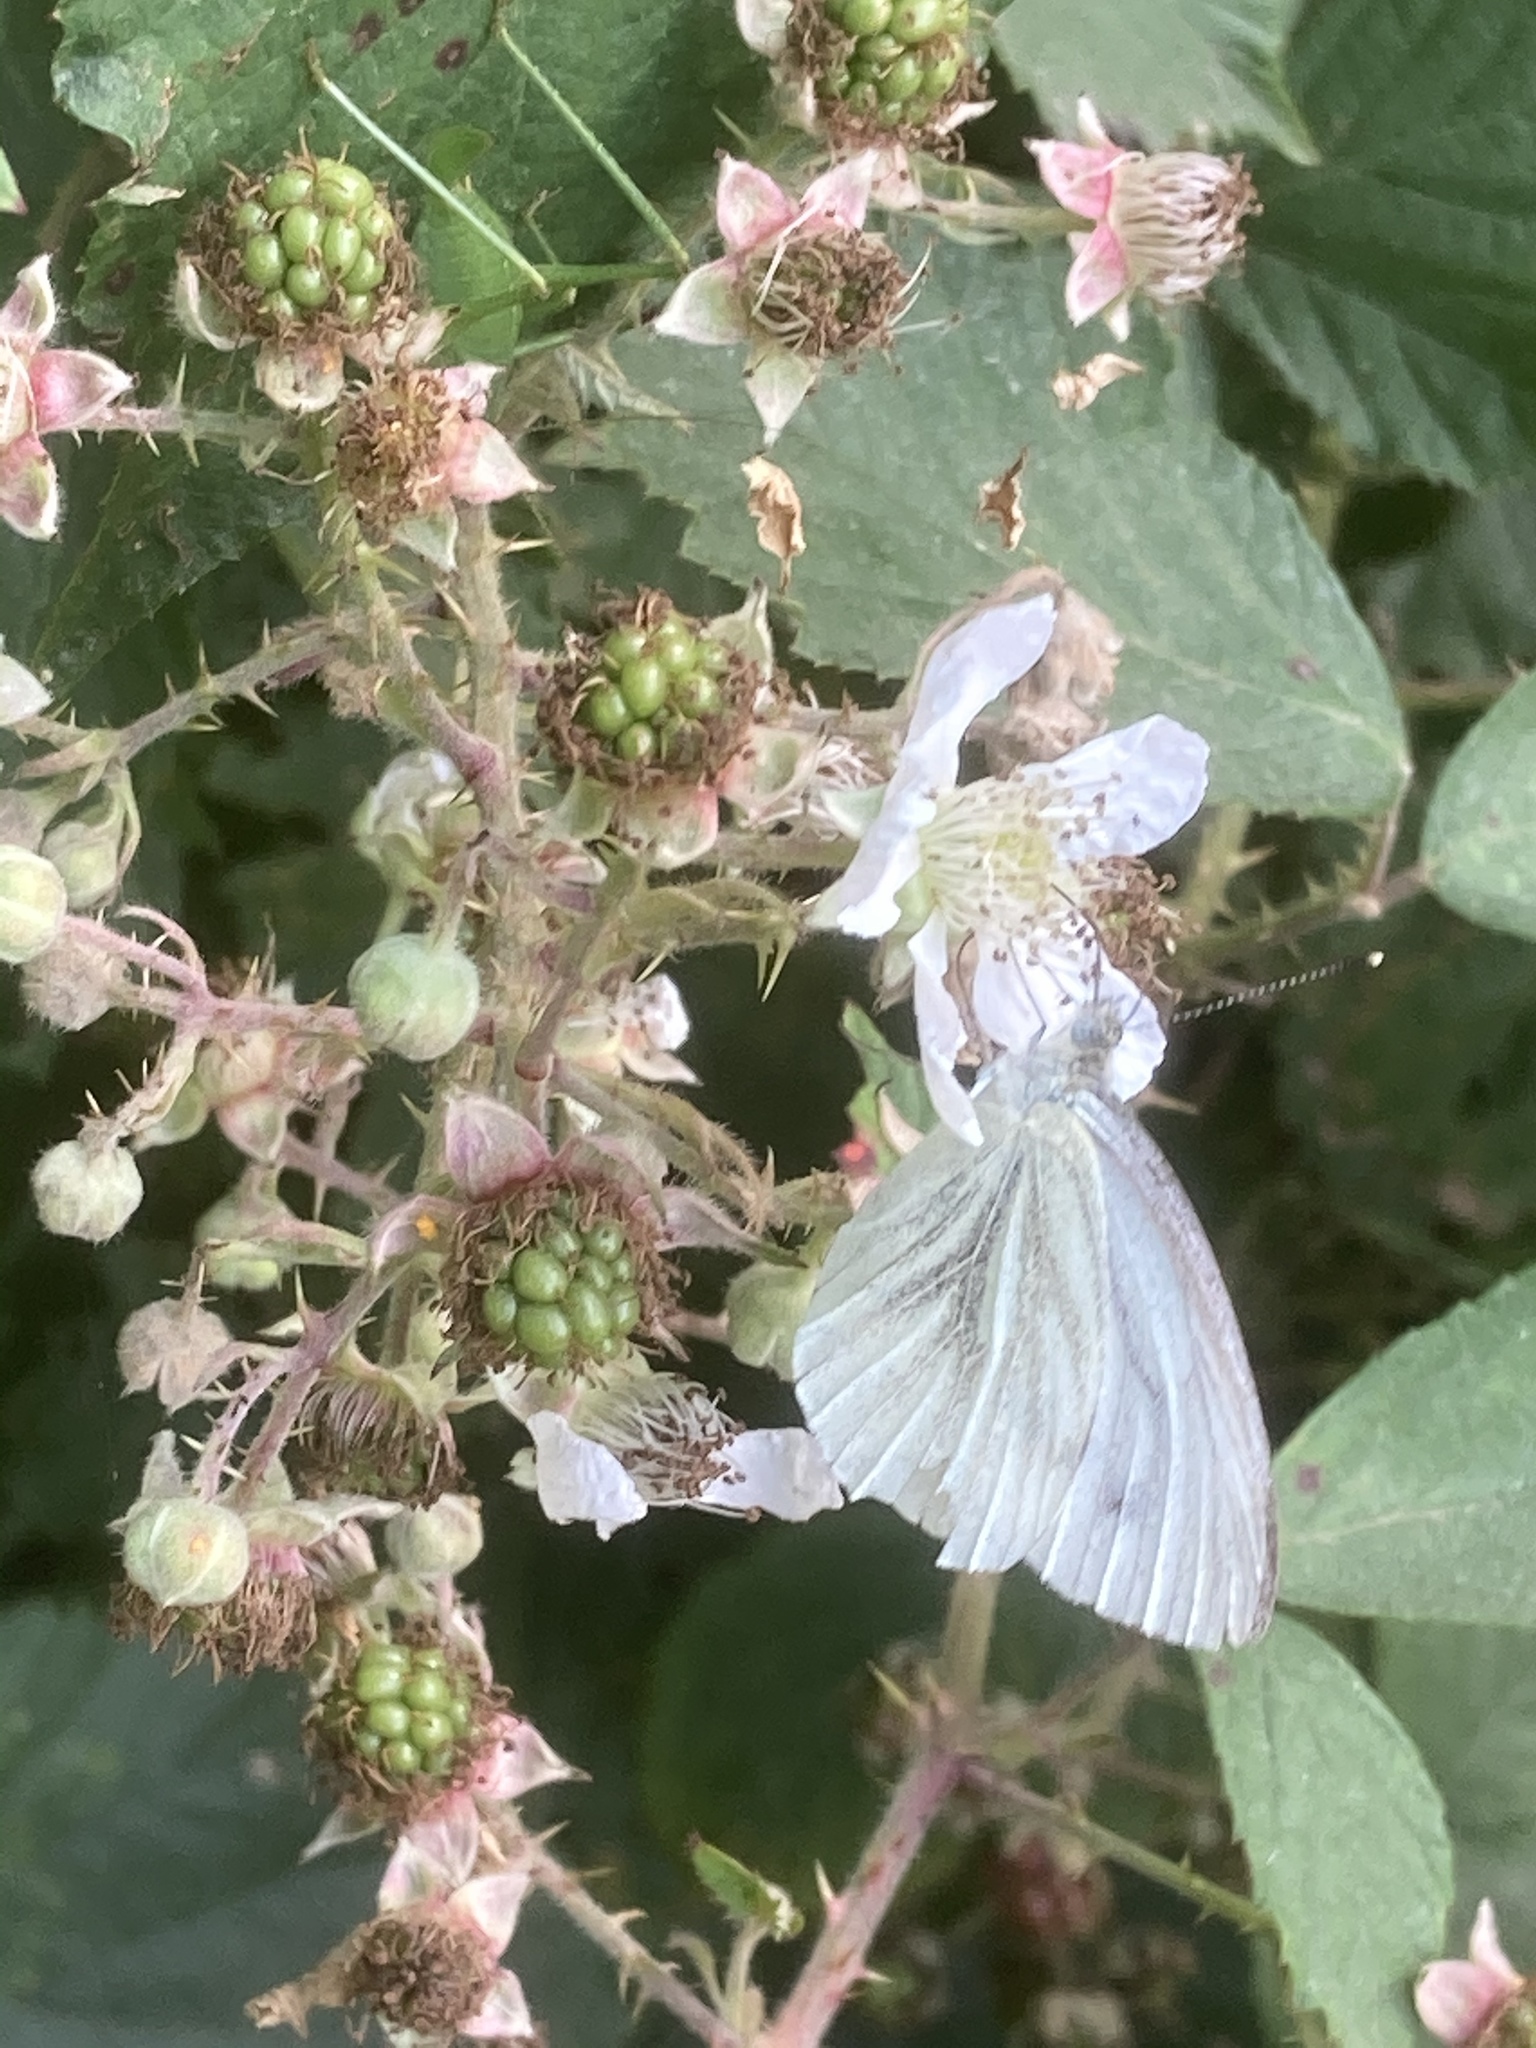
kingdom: Animalia
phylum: Arthropoda
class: Insecta
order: Lepidoptera
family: Pieridae
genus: Pieris
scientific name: Pieris napi
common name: Green-veined white
